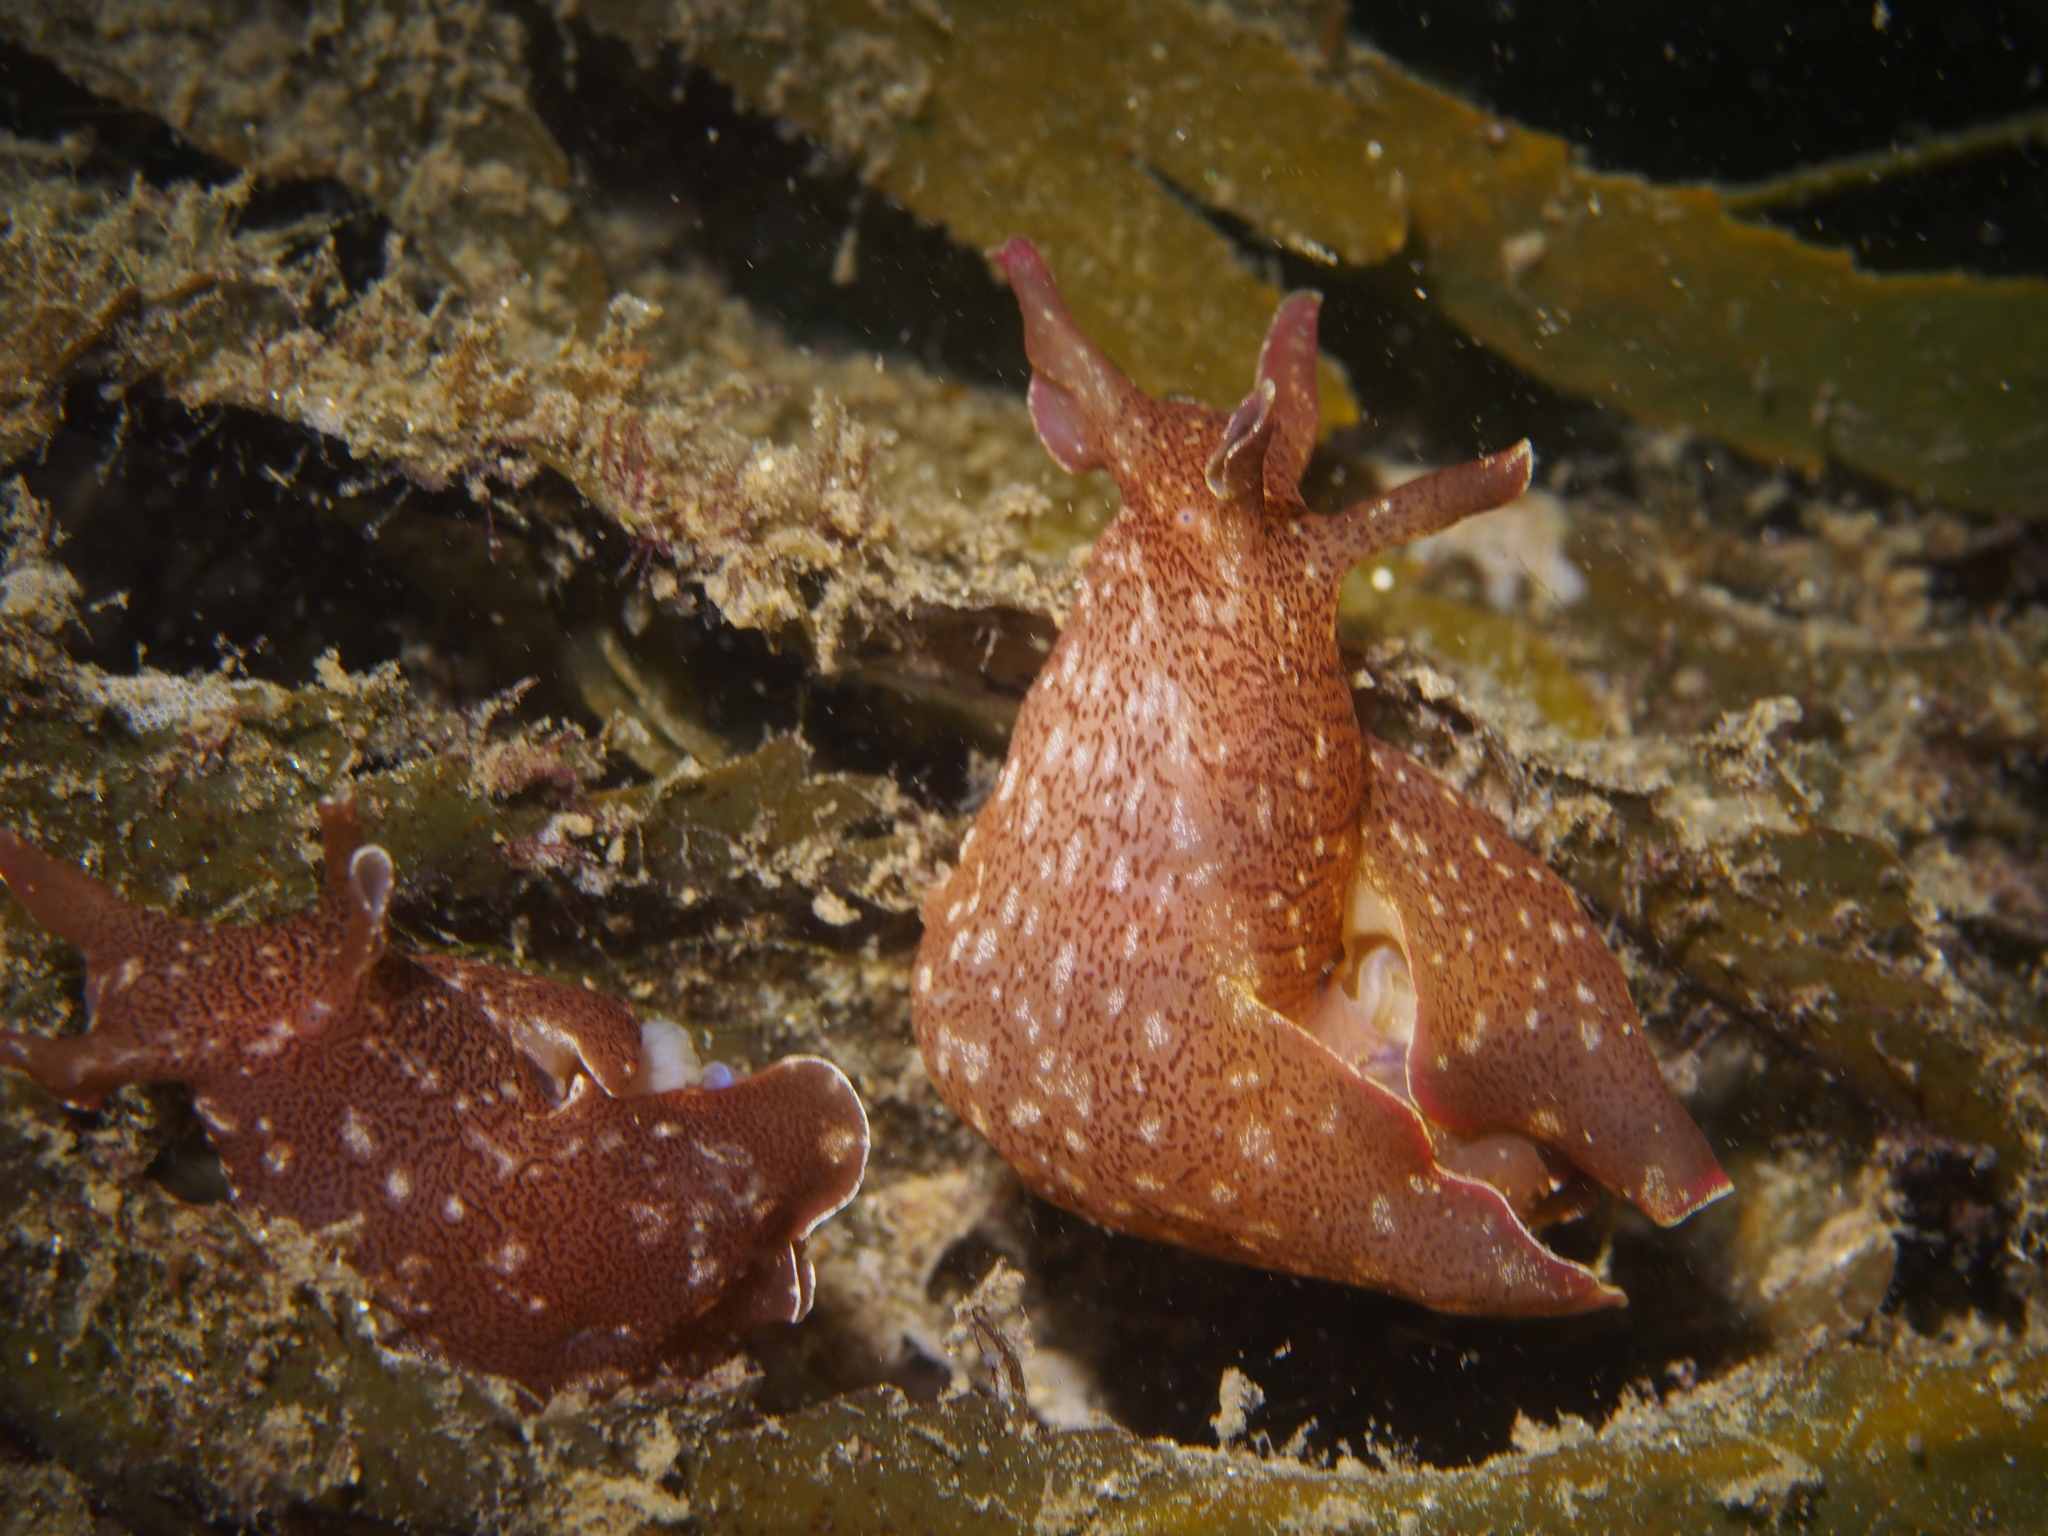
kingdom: Animalia
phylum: Mollusca
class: Gastropoda
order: Aplysiida
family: Aplysiidae
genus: Aplysia
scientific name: Aplysia punctata
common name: Common sea hare
